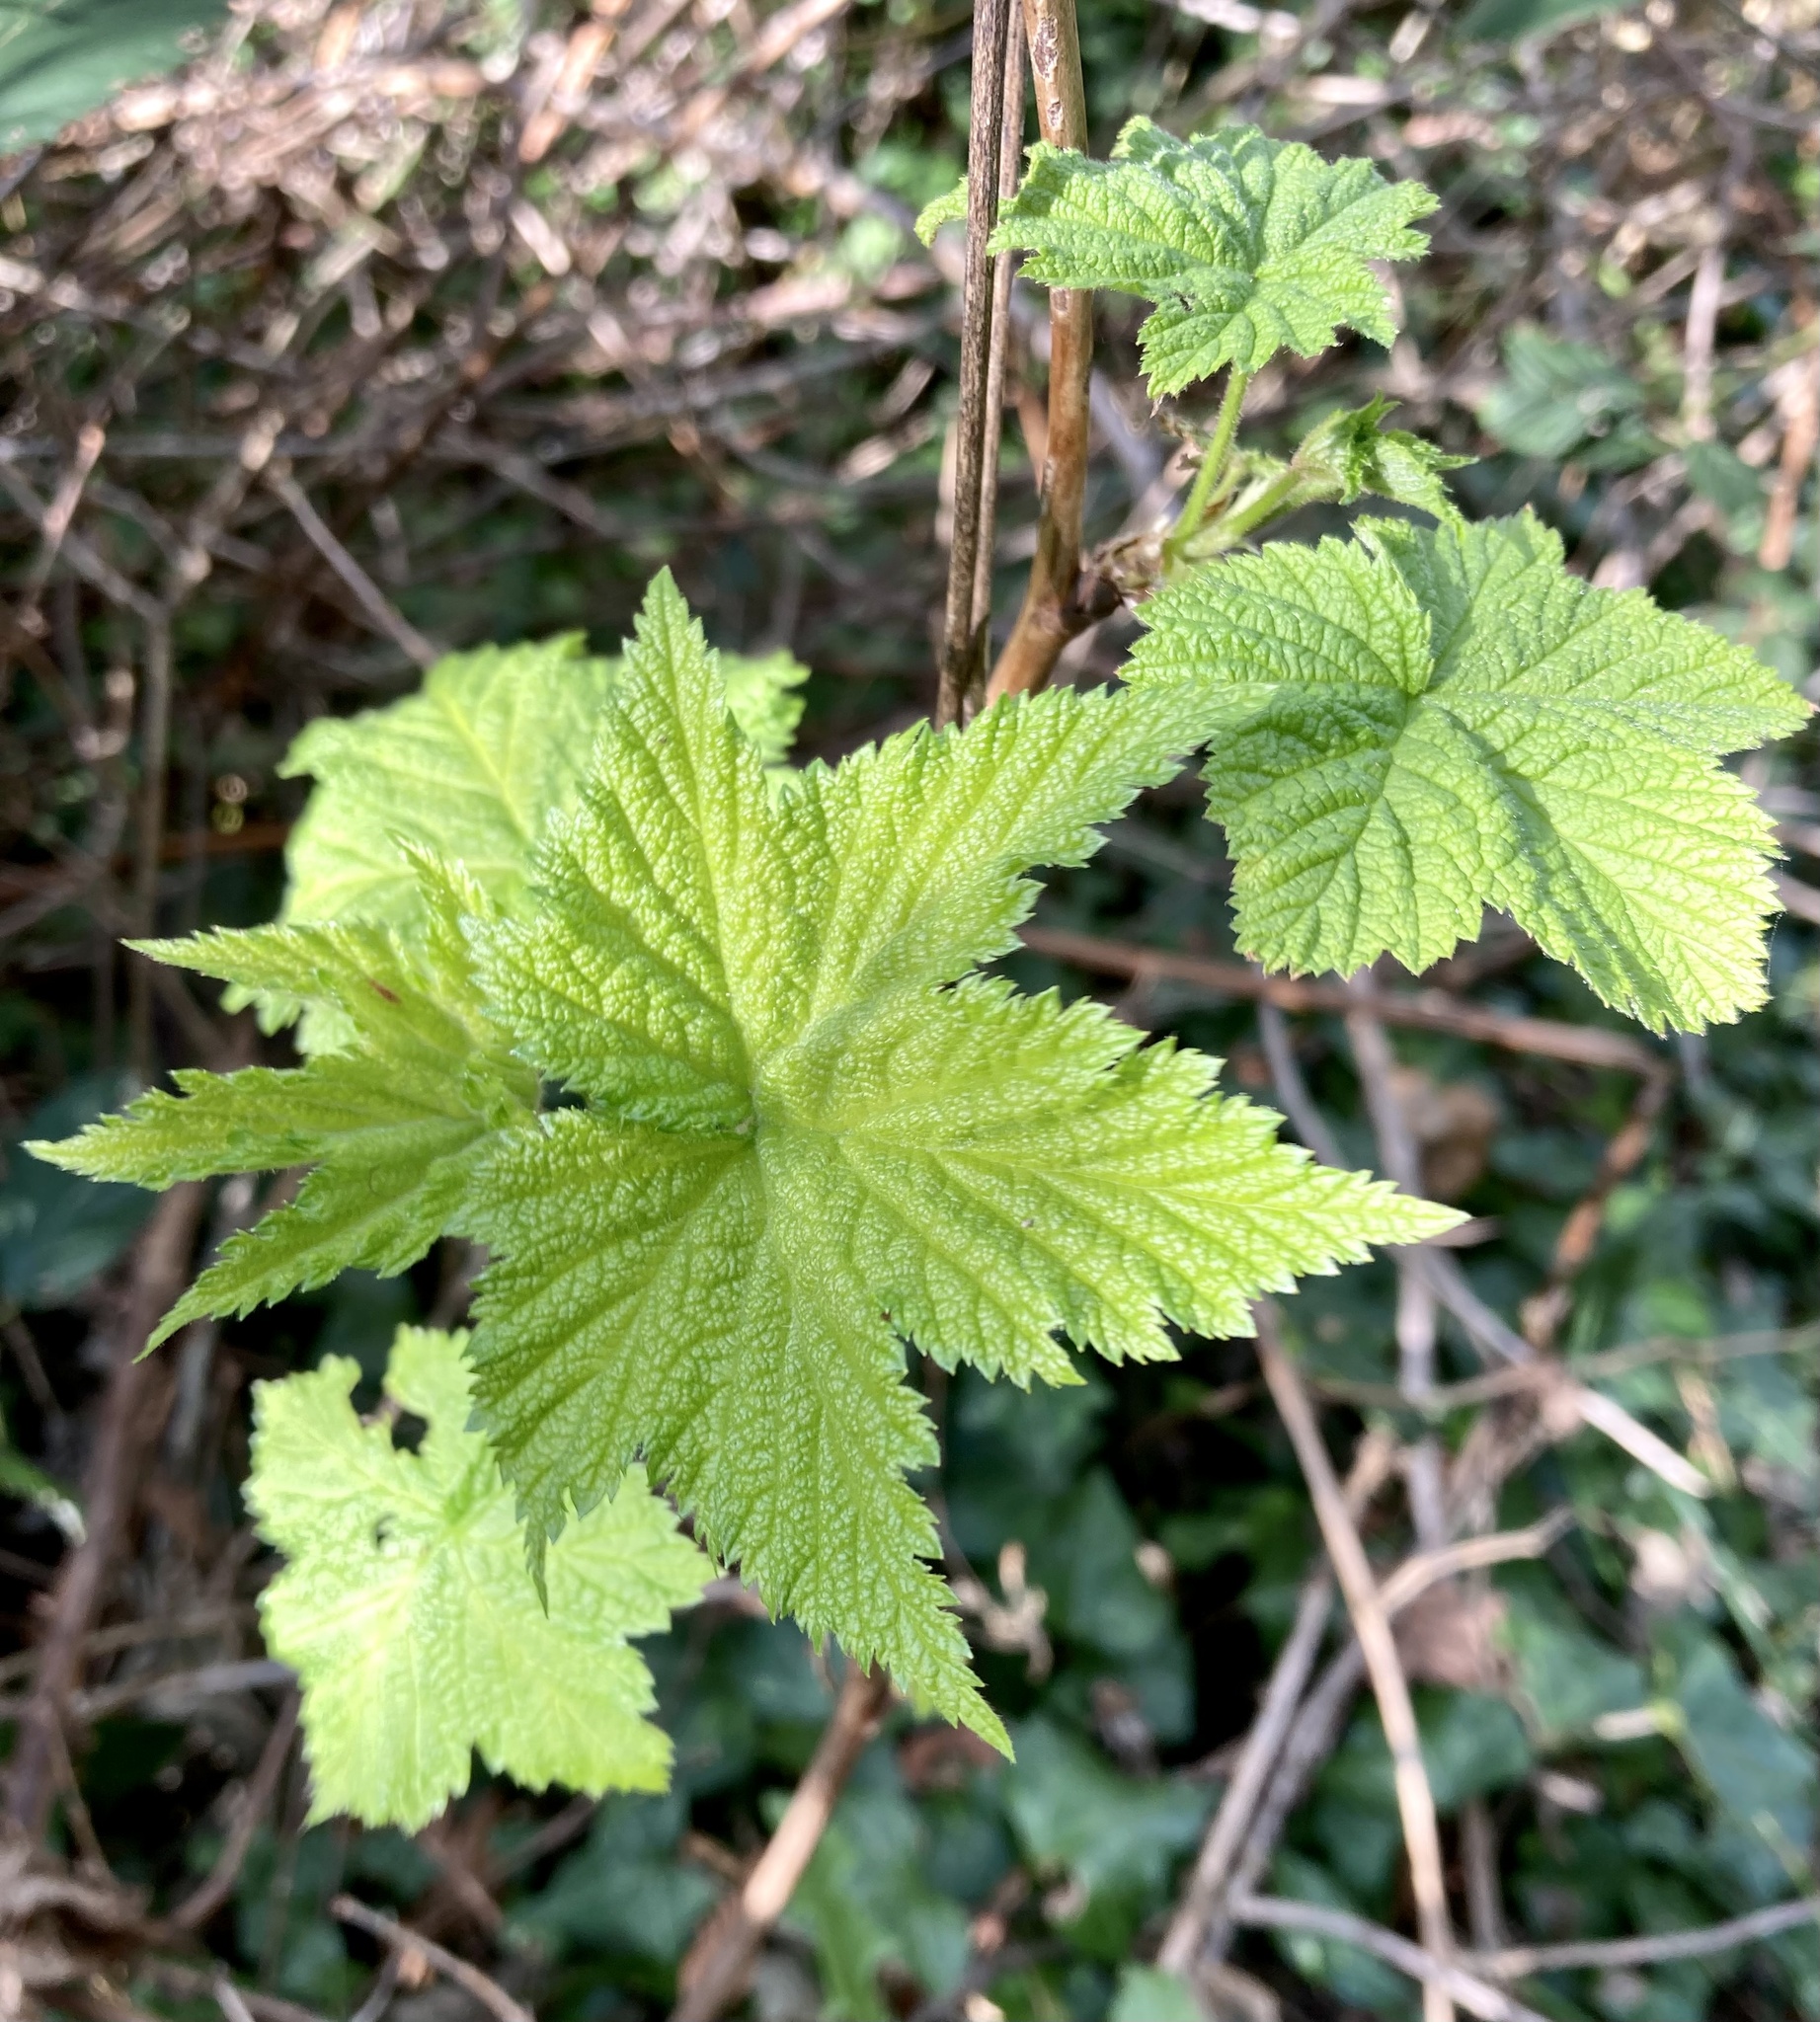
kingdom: Plantae
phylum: Tracheophyta
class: Magnoliopsida
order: Rosales
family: Rosaceae
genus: Rubus
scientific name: Rubus parviflorus
